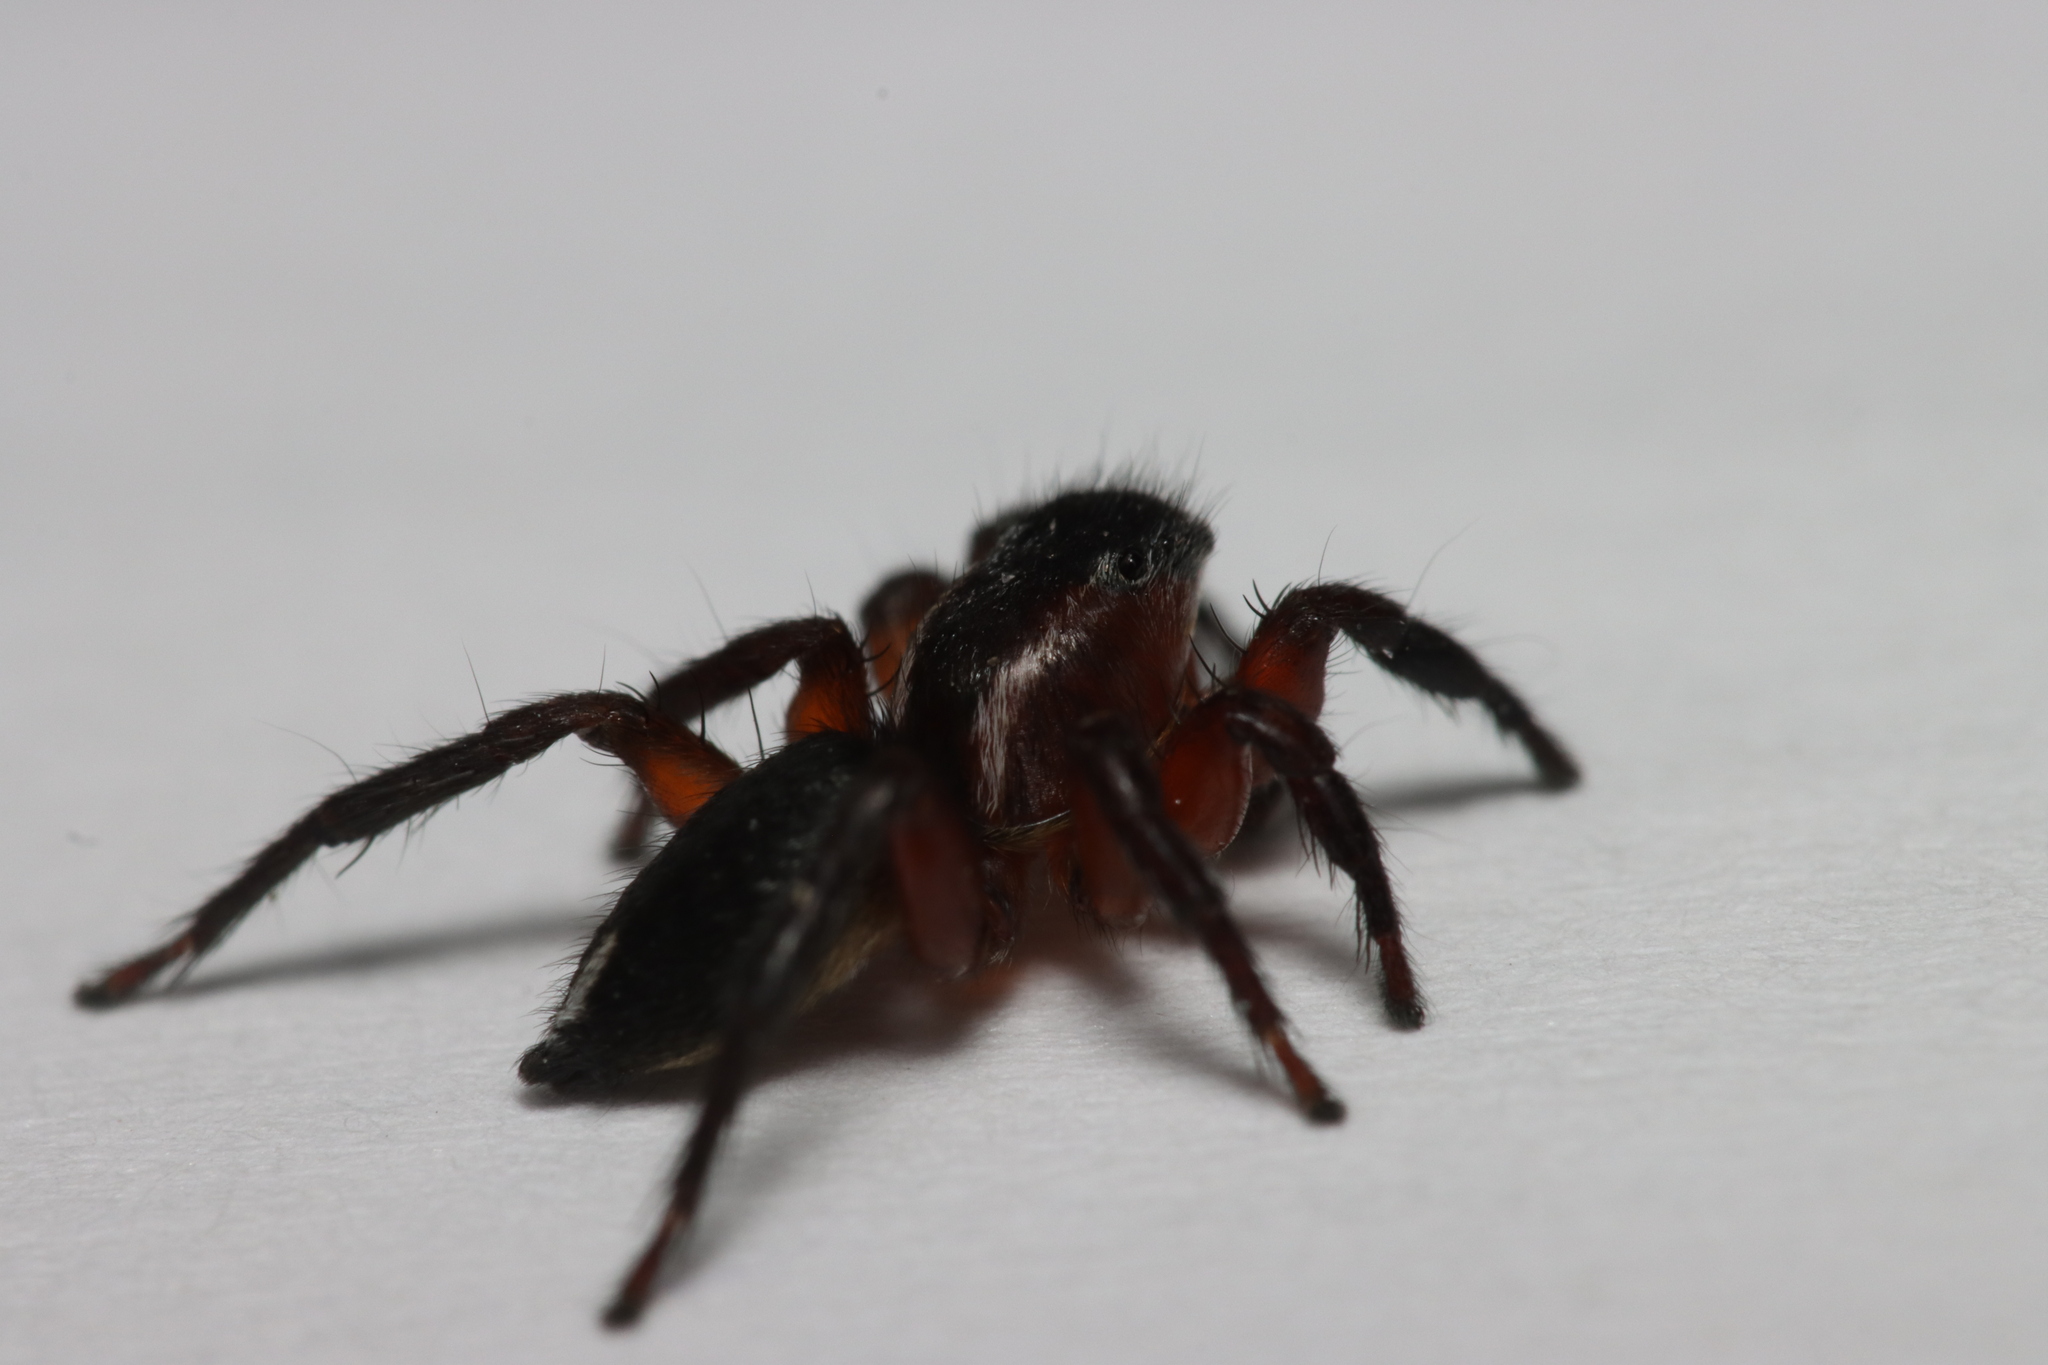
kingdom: Animalia
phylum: Arthropoda
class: Arachnida
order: Araneae
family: Salticidae
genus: Phlegra
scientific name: Phlegra fasciata
